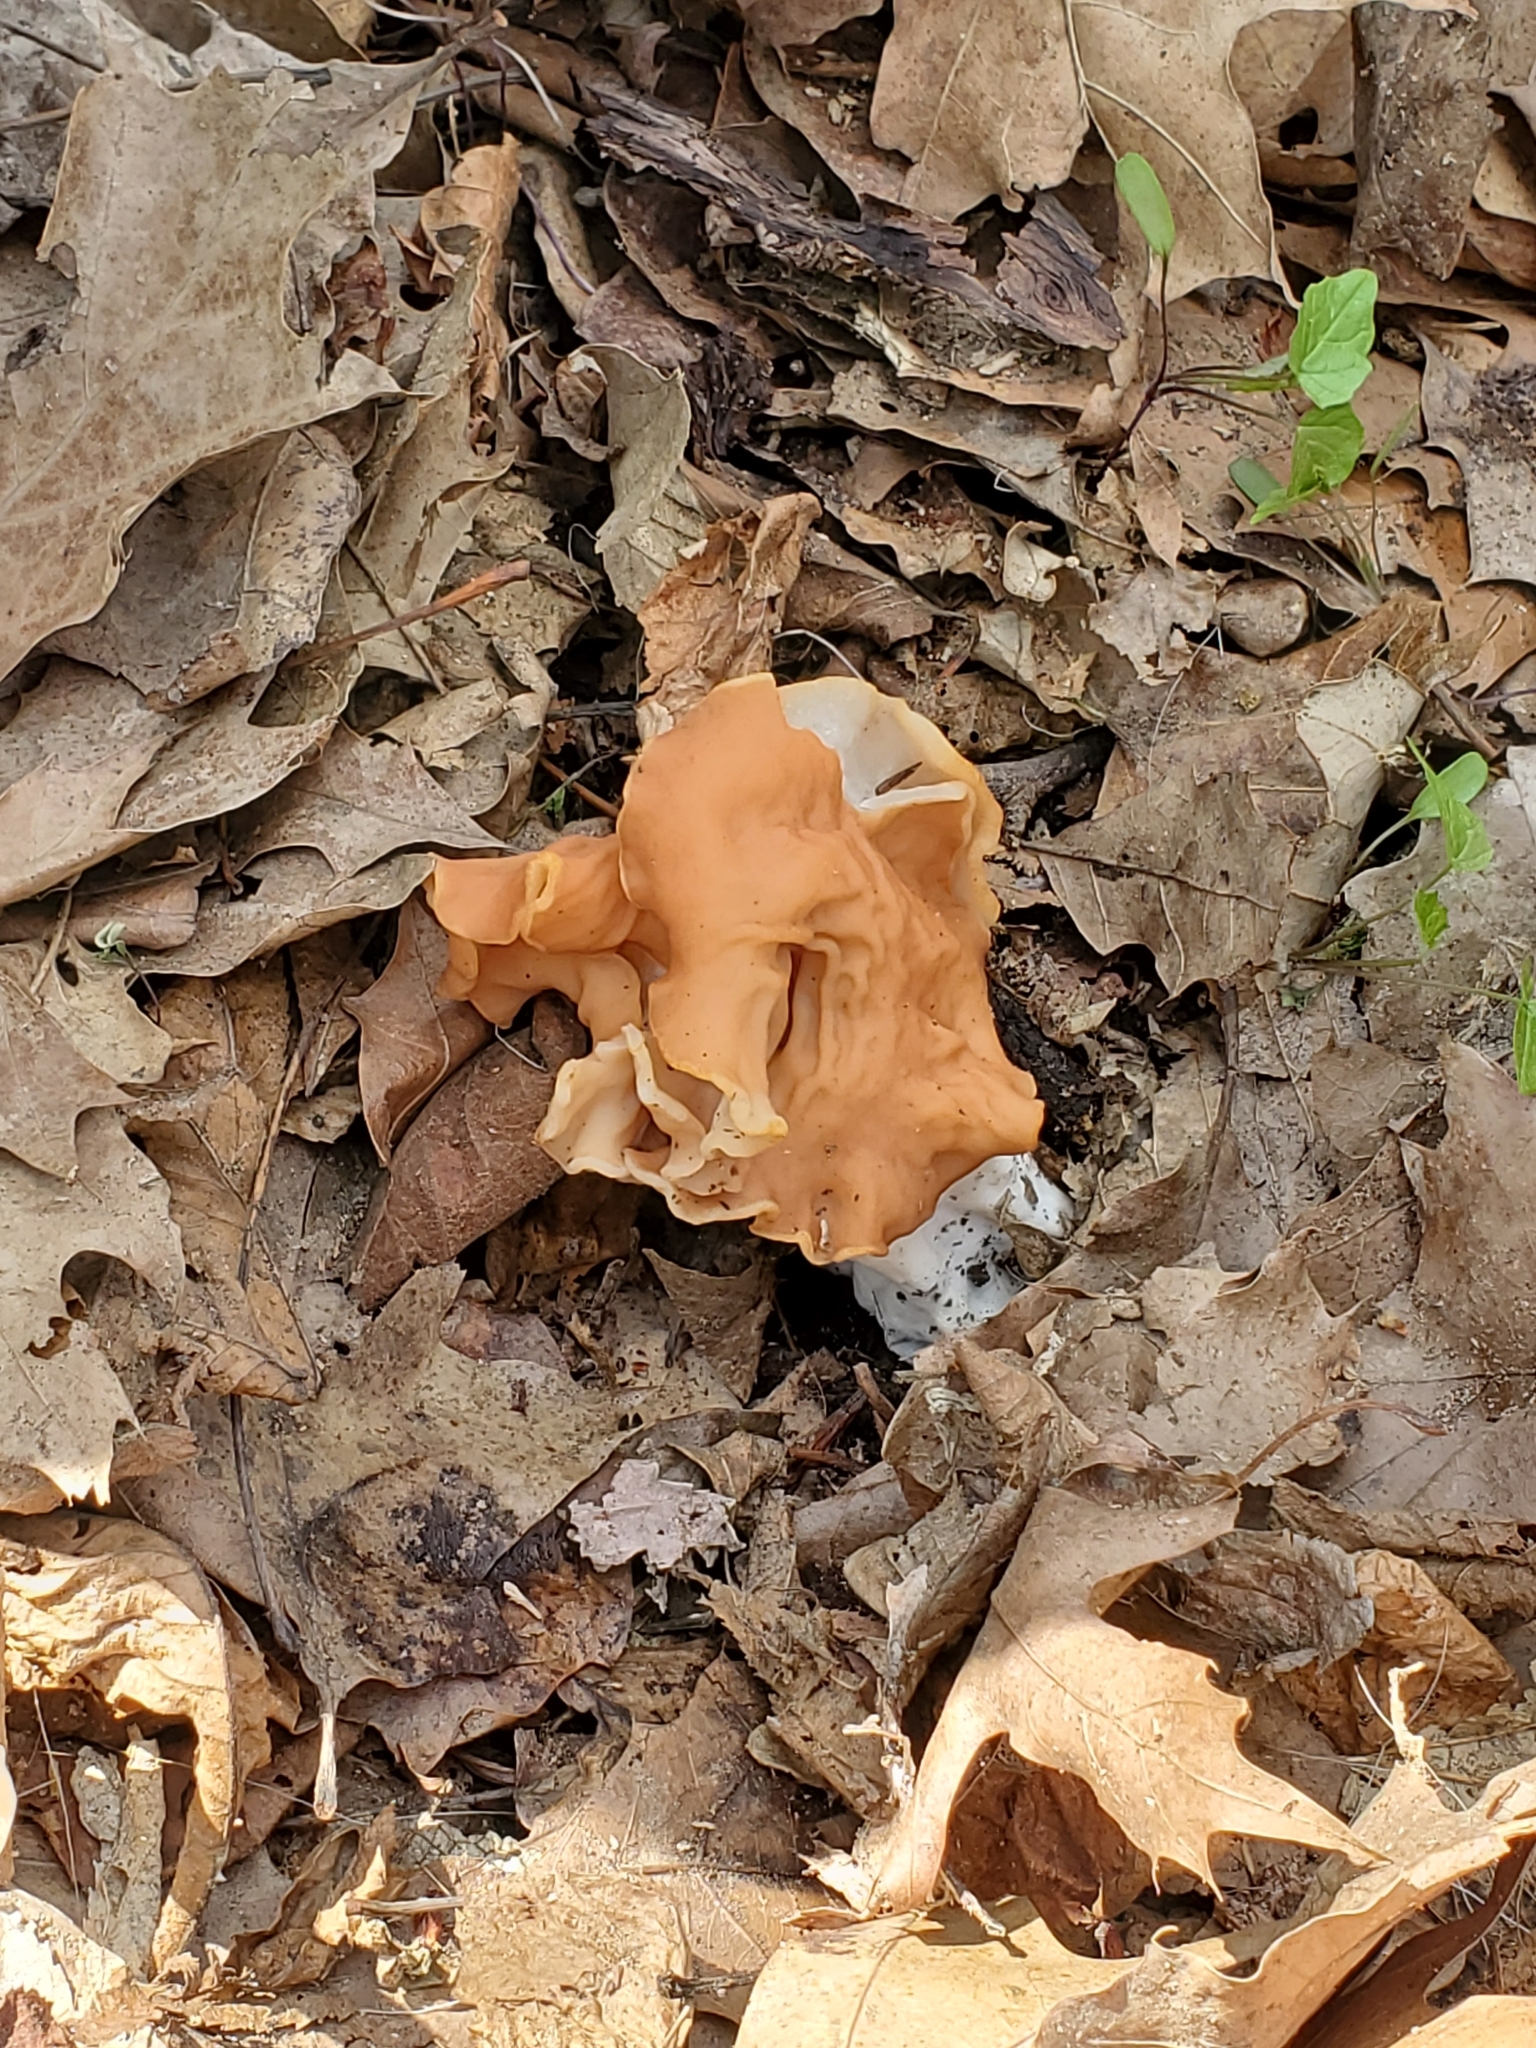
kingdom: Fungi
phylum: Ascomycota
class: Pezizomycetes
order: Pezizales
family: Discinaceae
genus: Discina
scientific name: Discina brunnea
